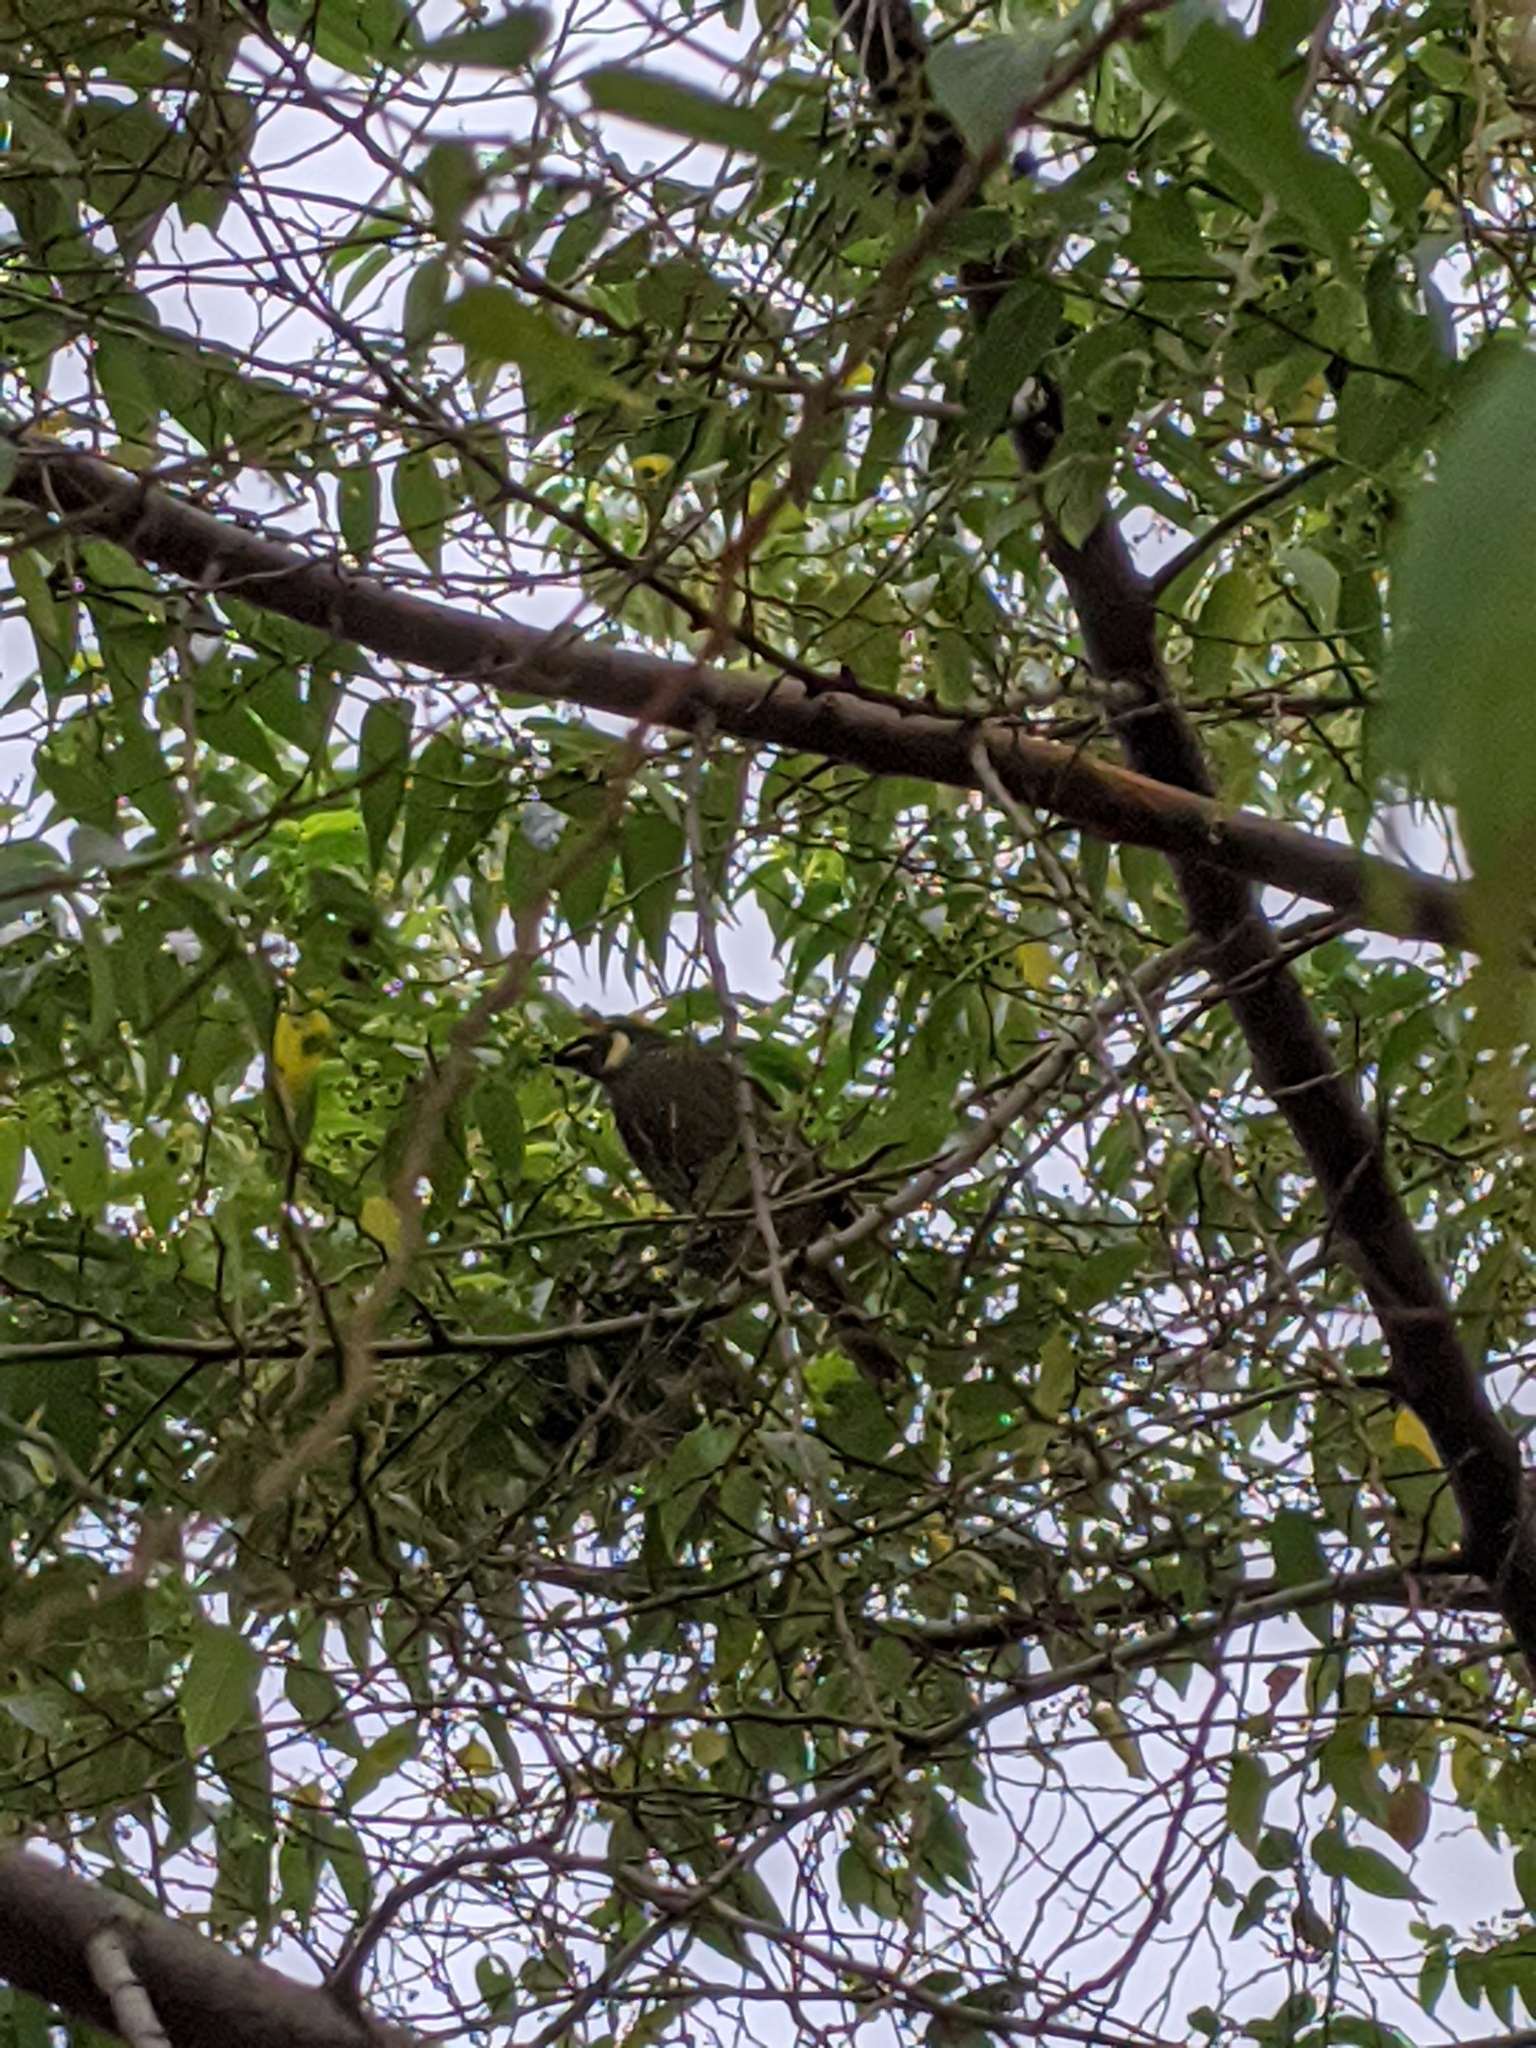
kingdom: Animalia
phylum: Chordata
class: Aves
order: Passeriformes
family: Meliphagidae
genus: Meliphaga
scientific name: Meliphaga lewinii
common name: Lewin's honeyeater
